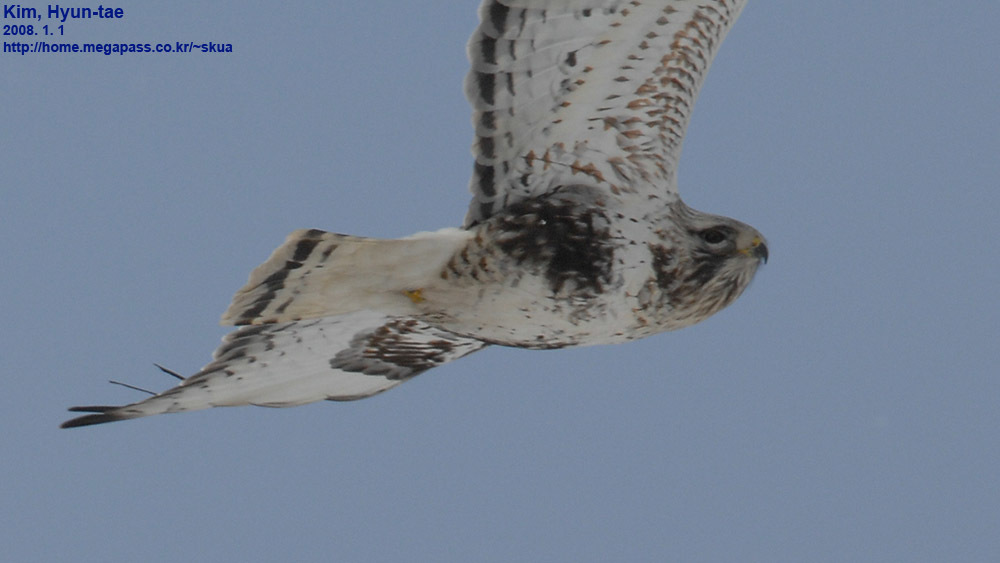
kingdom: Animalia
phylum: Chordata
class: Aves
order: Accipitriformes
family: Accipitridae
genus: Buteo
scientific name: Buteo lagopus
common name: Rough-legged buzzard
